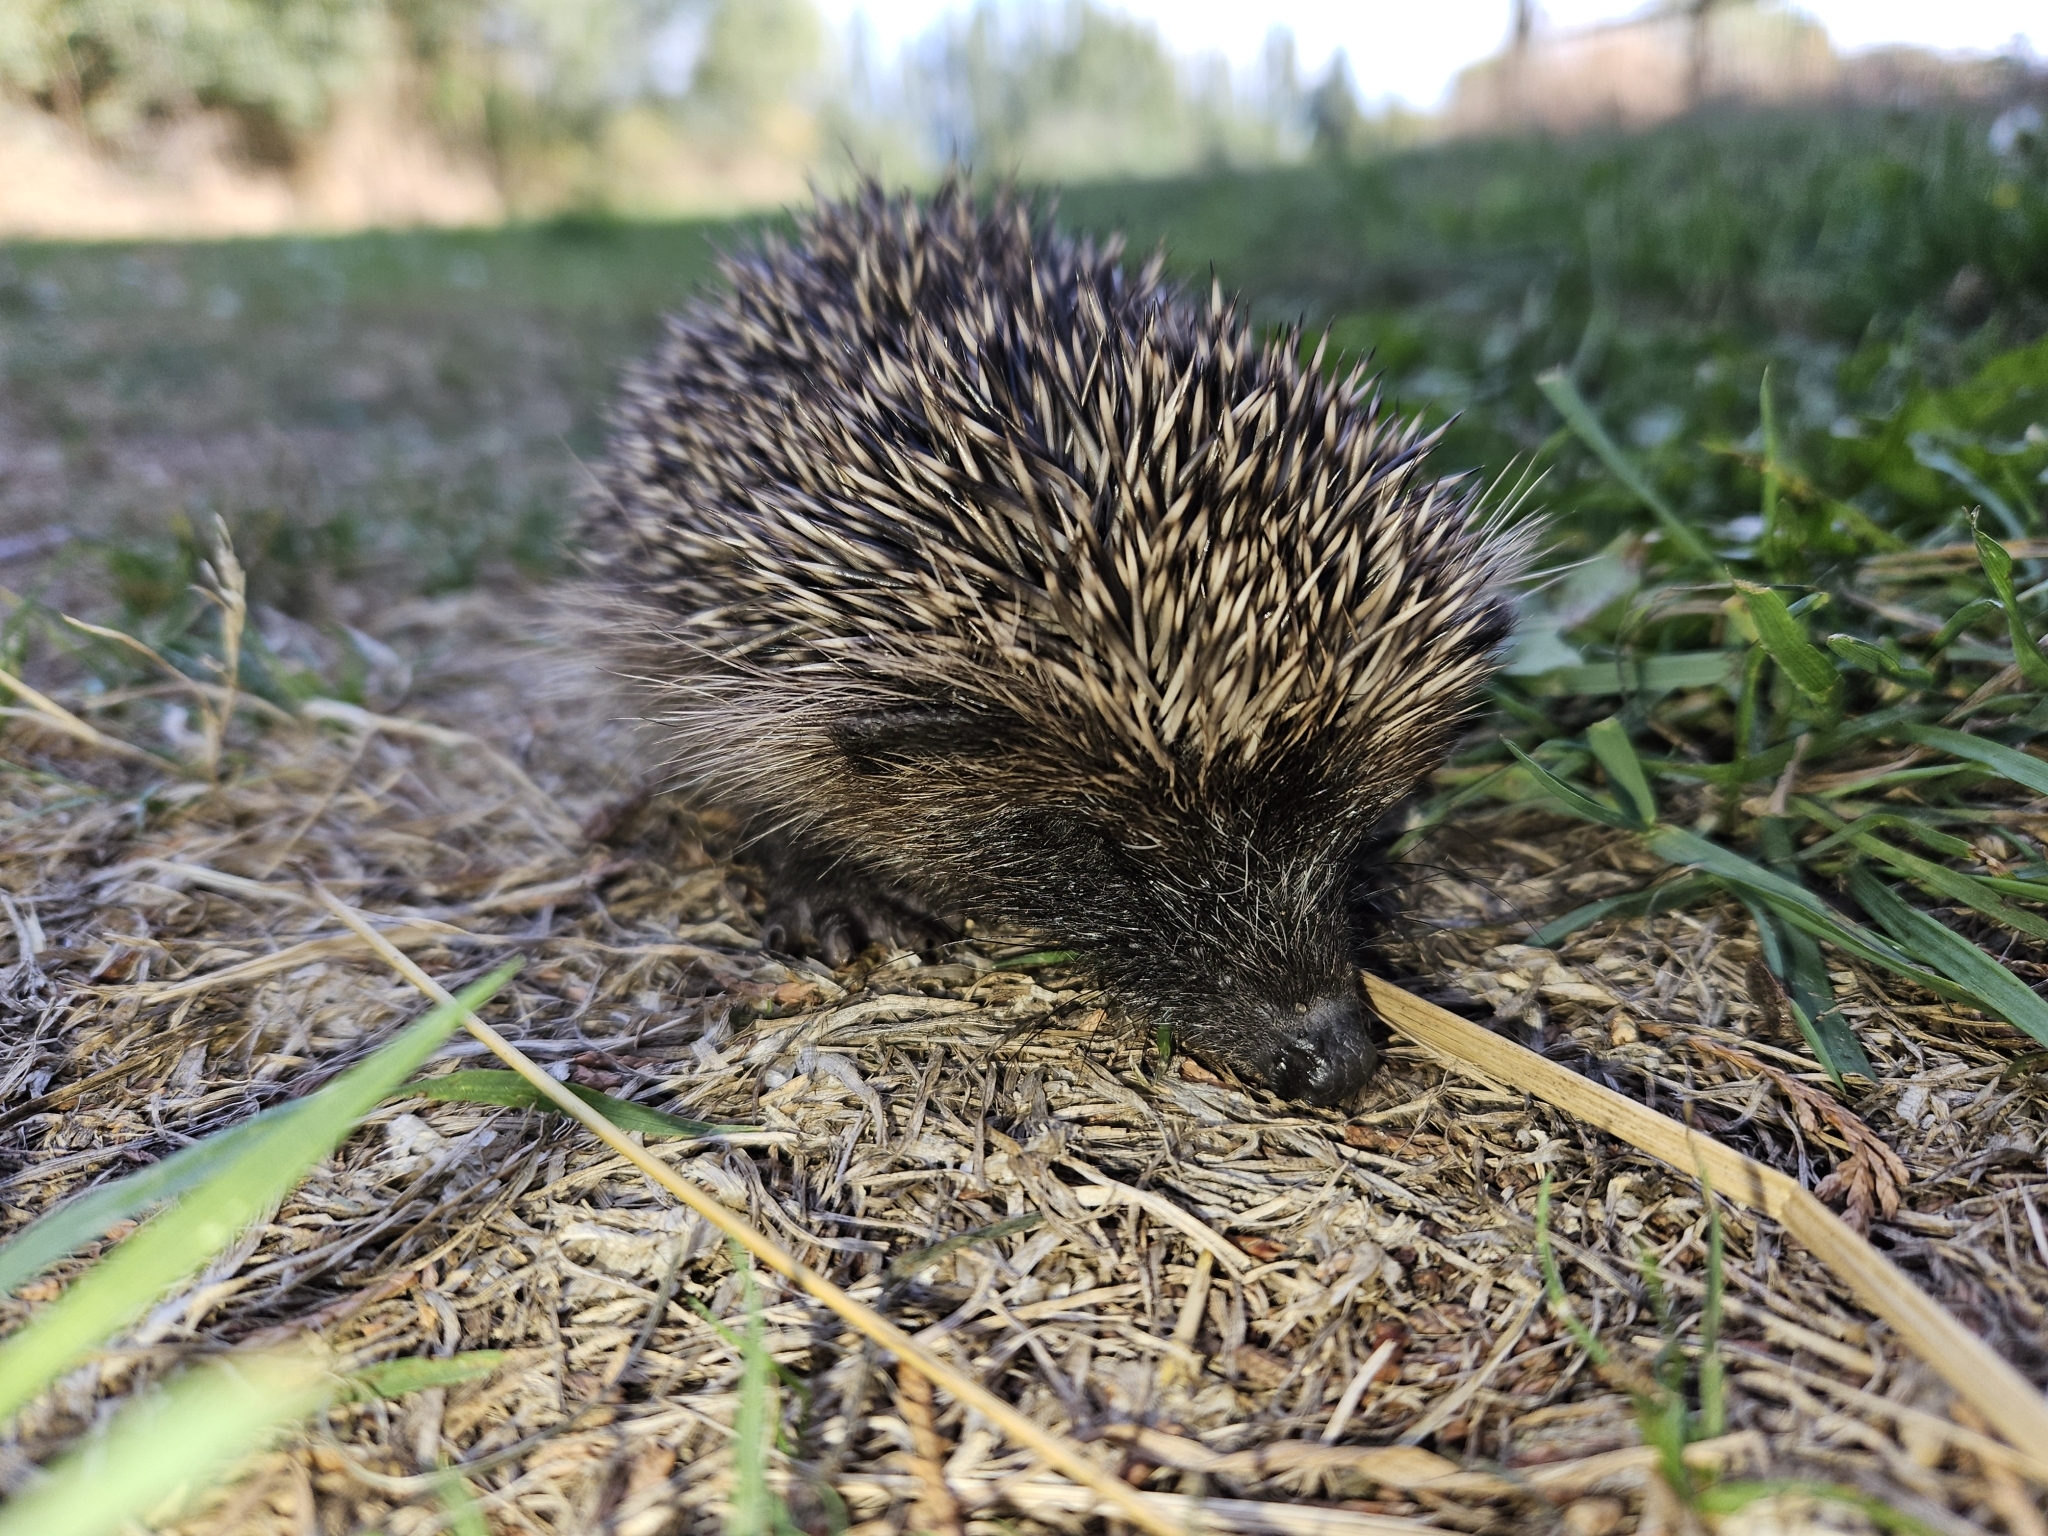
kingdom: Animalia
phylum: Chordata
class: Mammalia
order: Erinaceomorpha
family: Erinaceidae
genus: Erinaceus
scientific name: Erinaceus europaeus
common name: West european hedgehog
